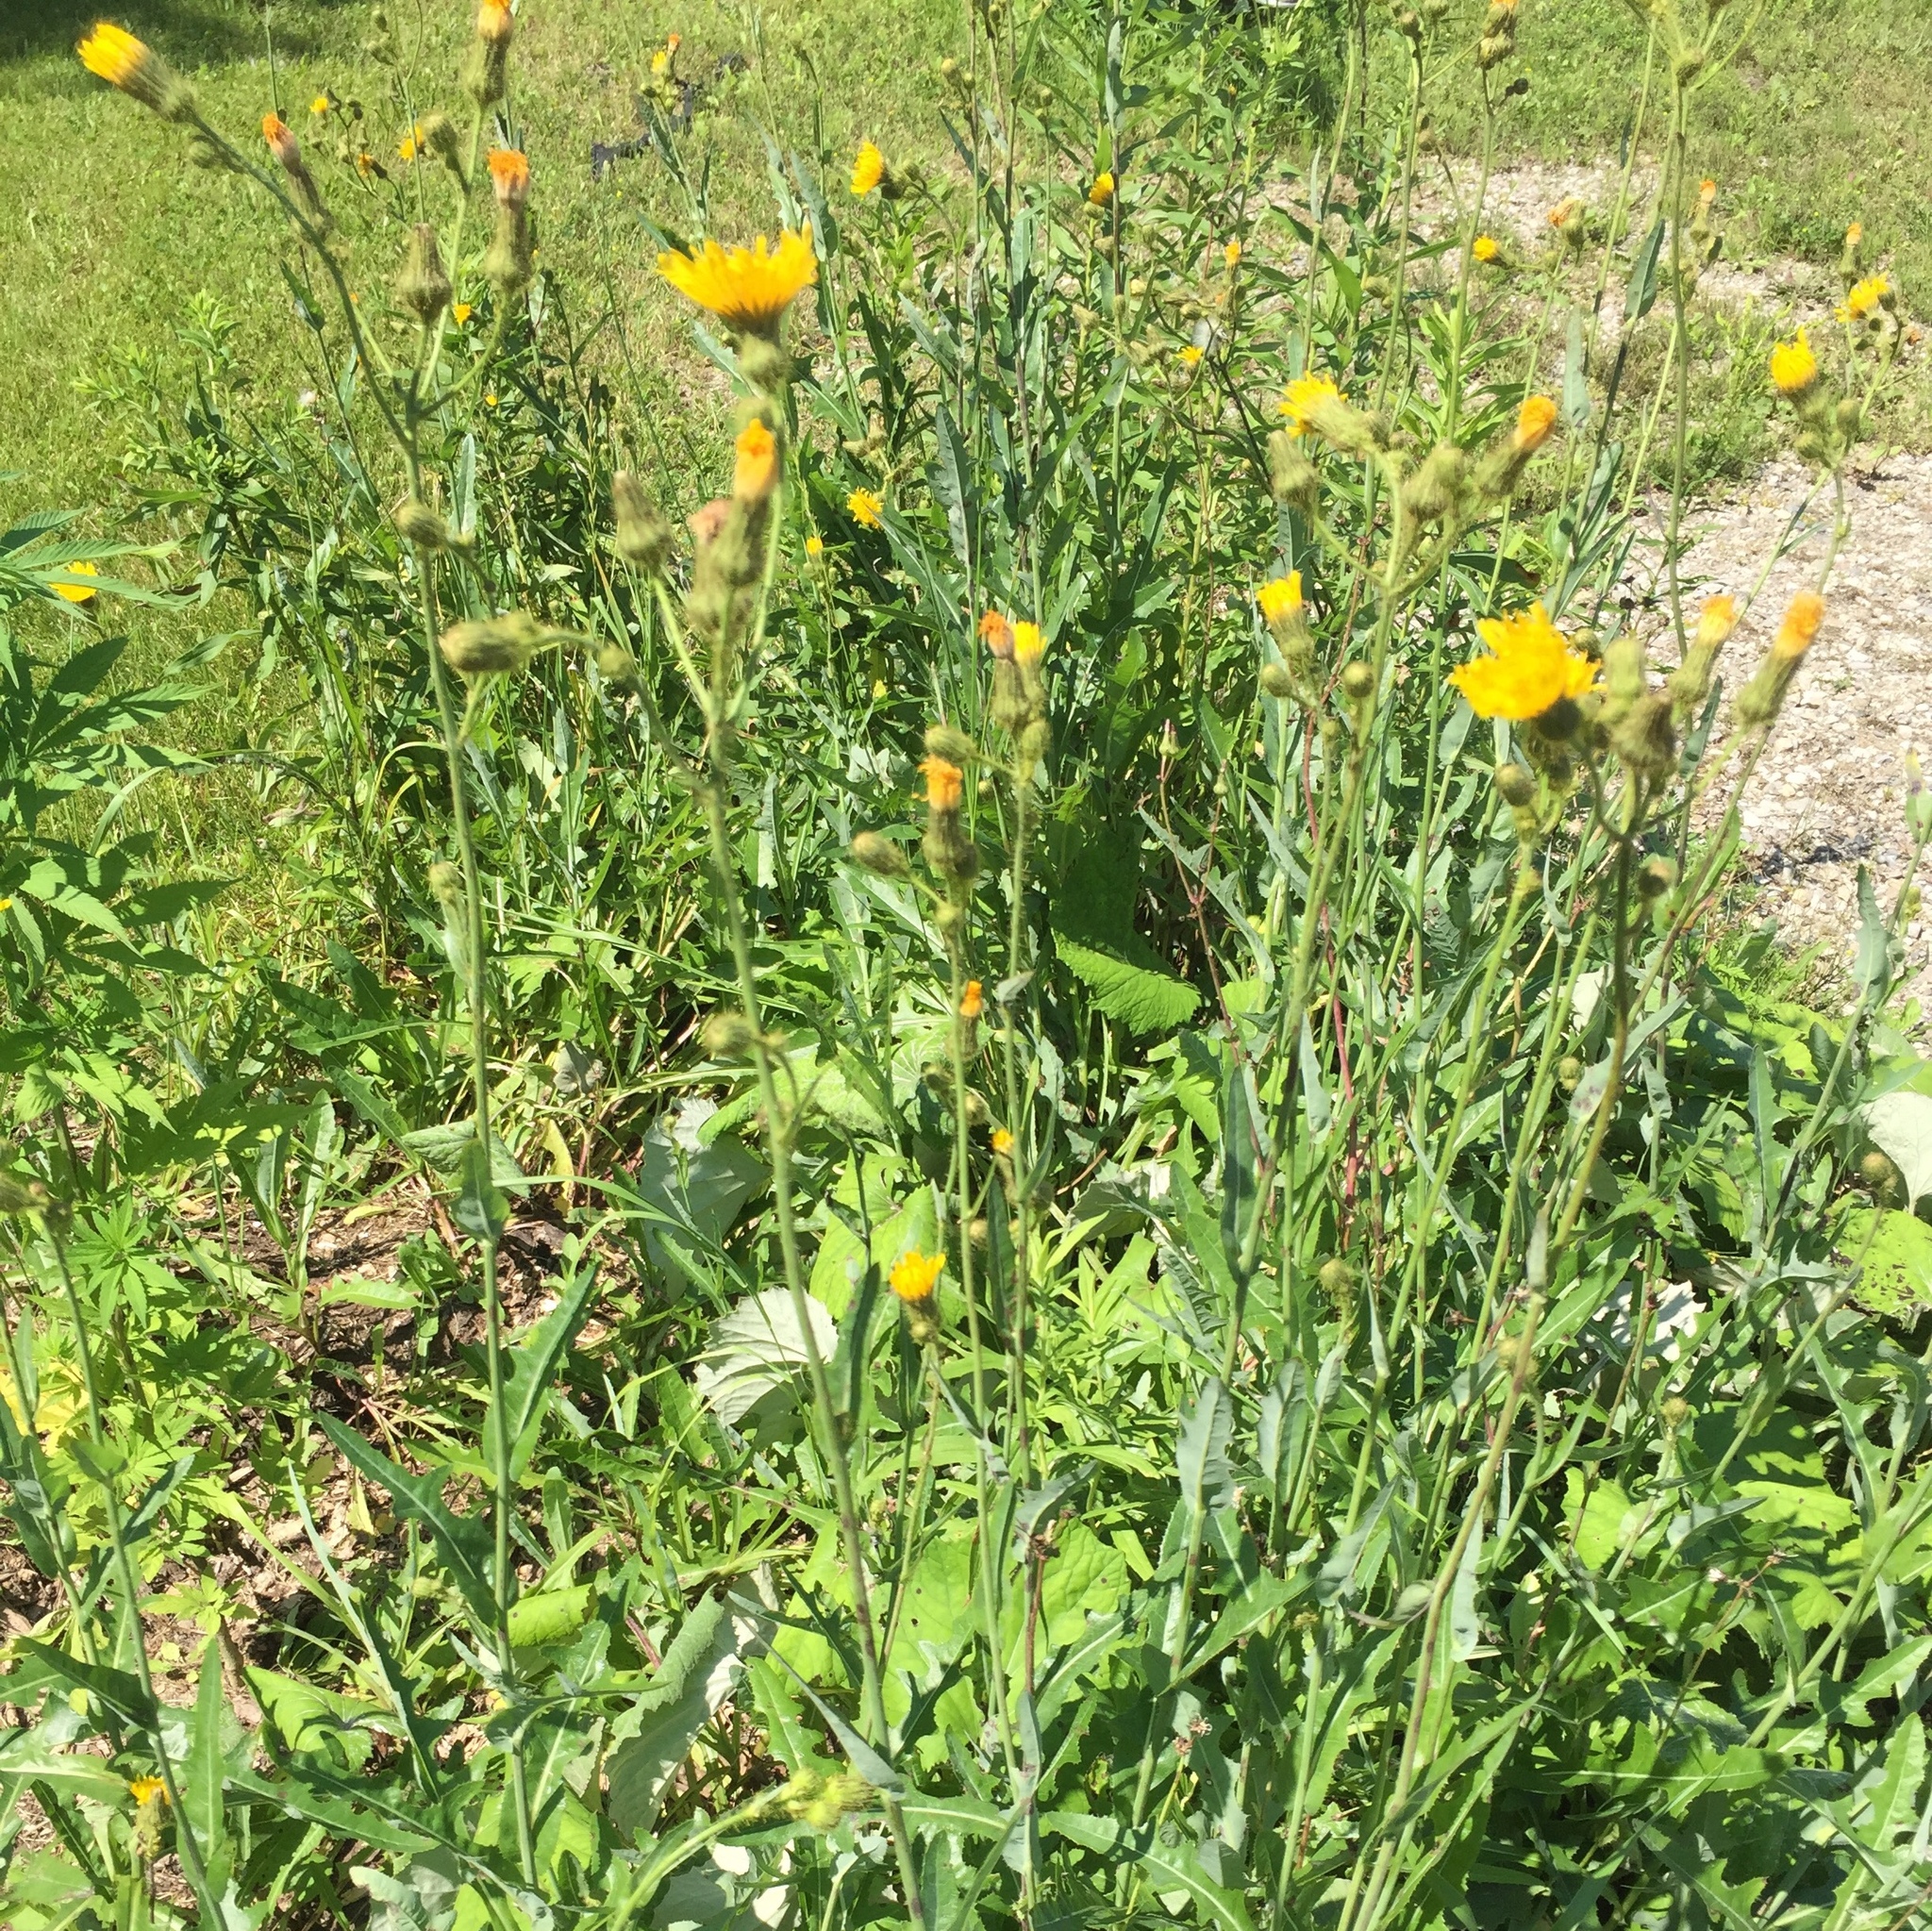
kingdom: Plantae
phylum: Tracheophyta
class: Magnoliopsida
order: Asterales
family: Asteraceae
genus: Sonchus
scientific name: Sonchus arvensis
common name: Perennial sow-thistle
